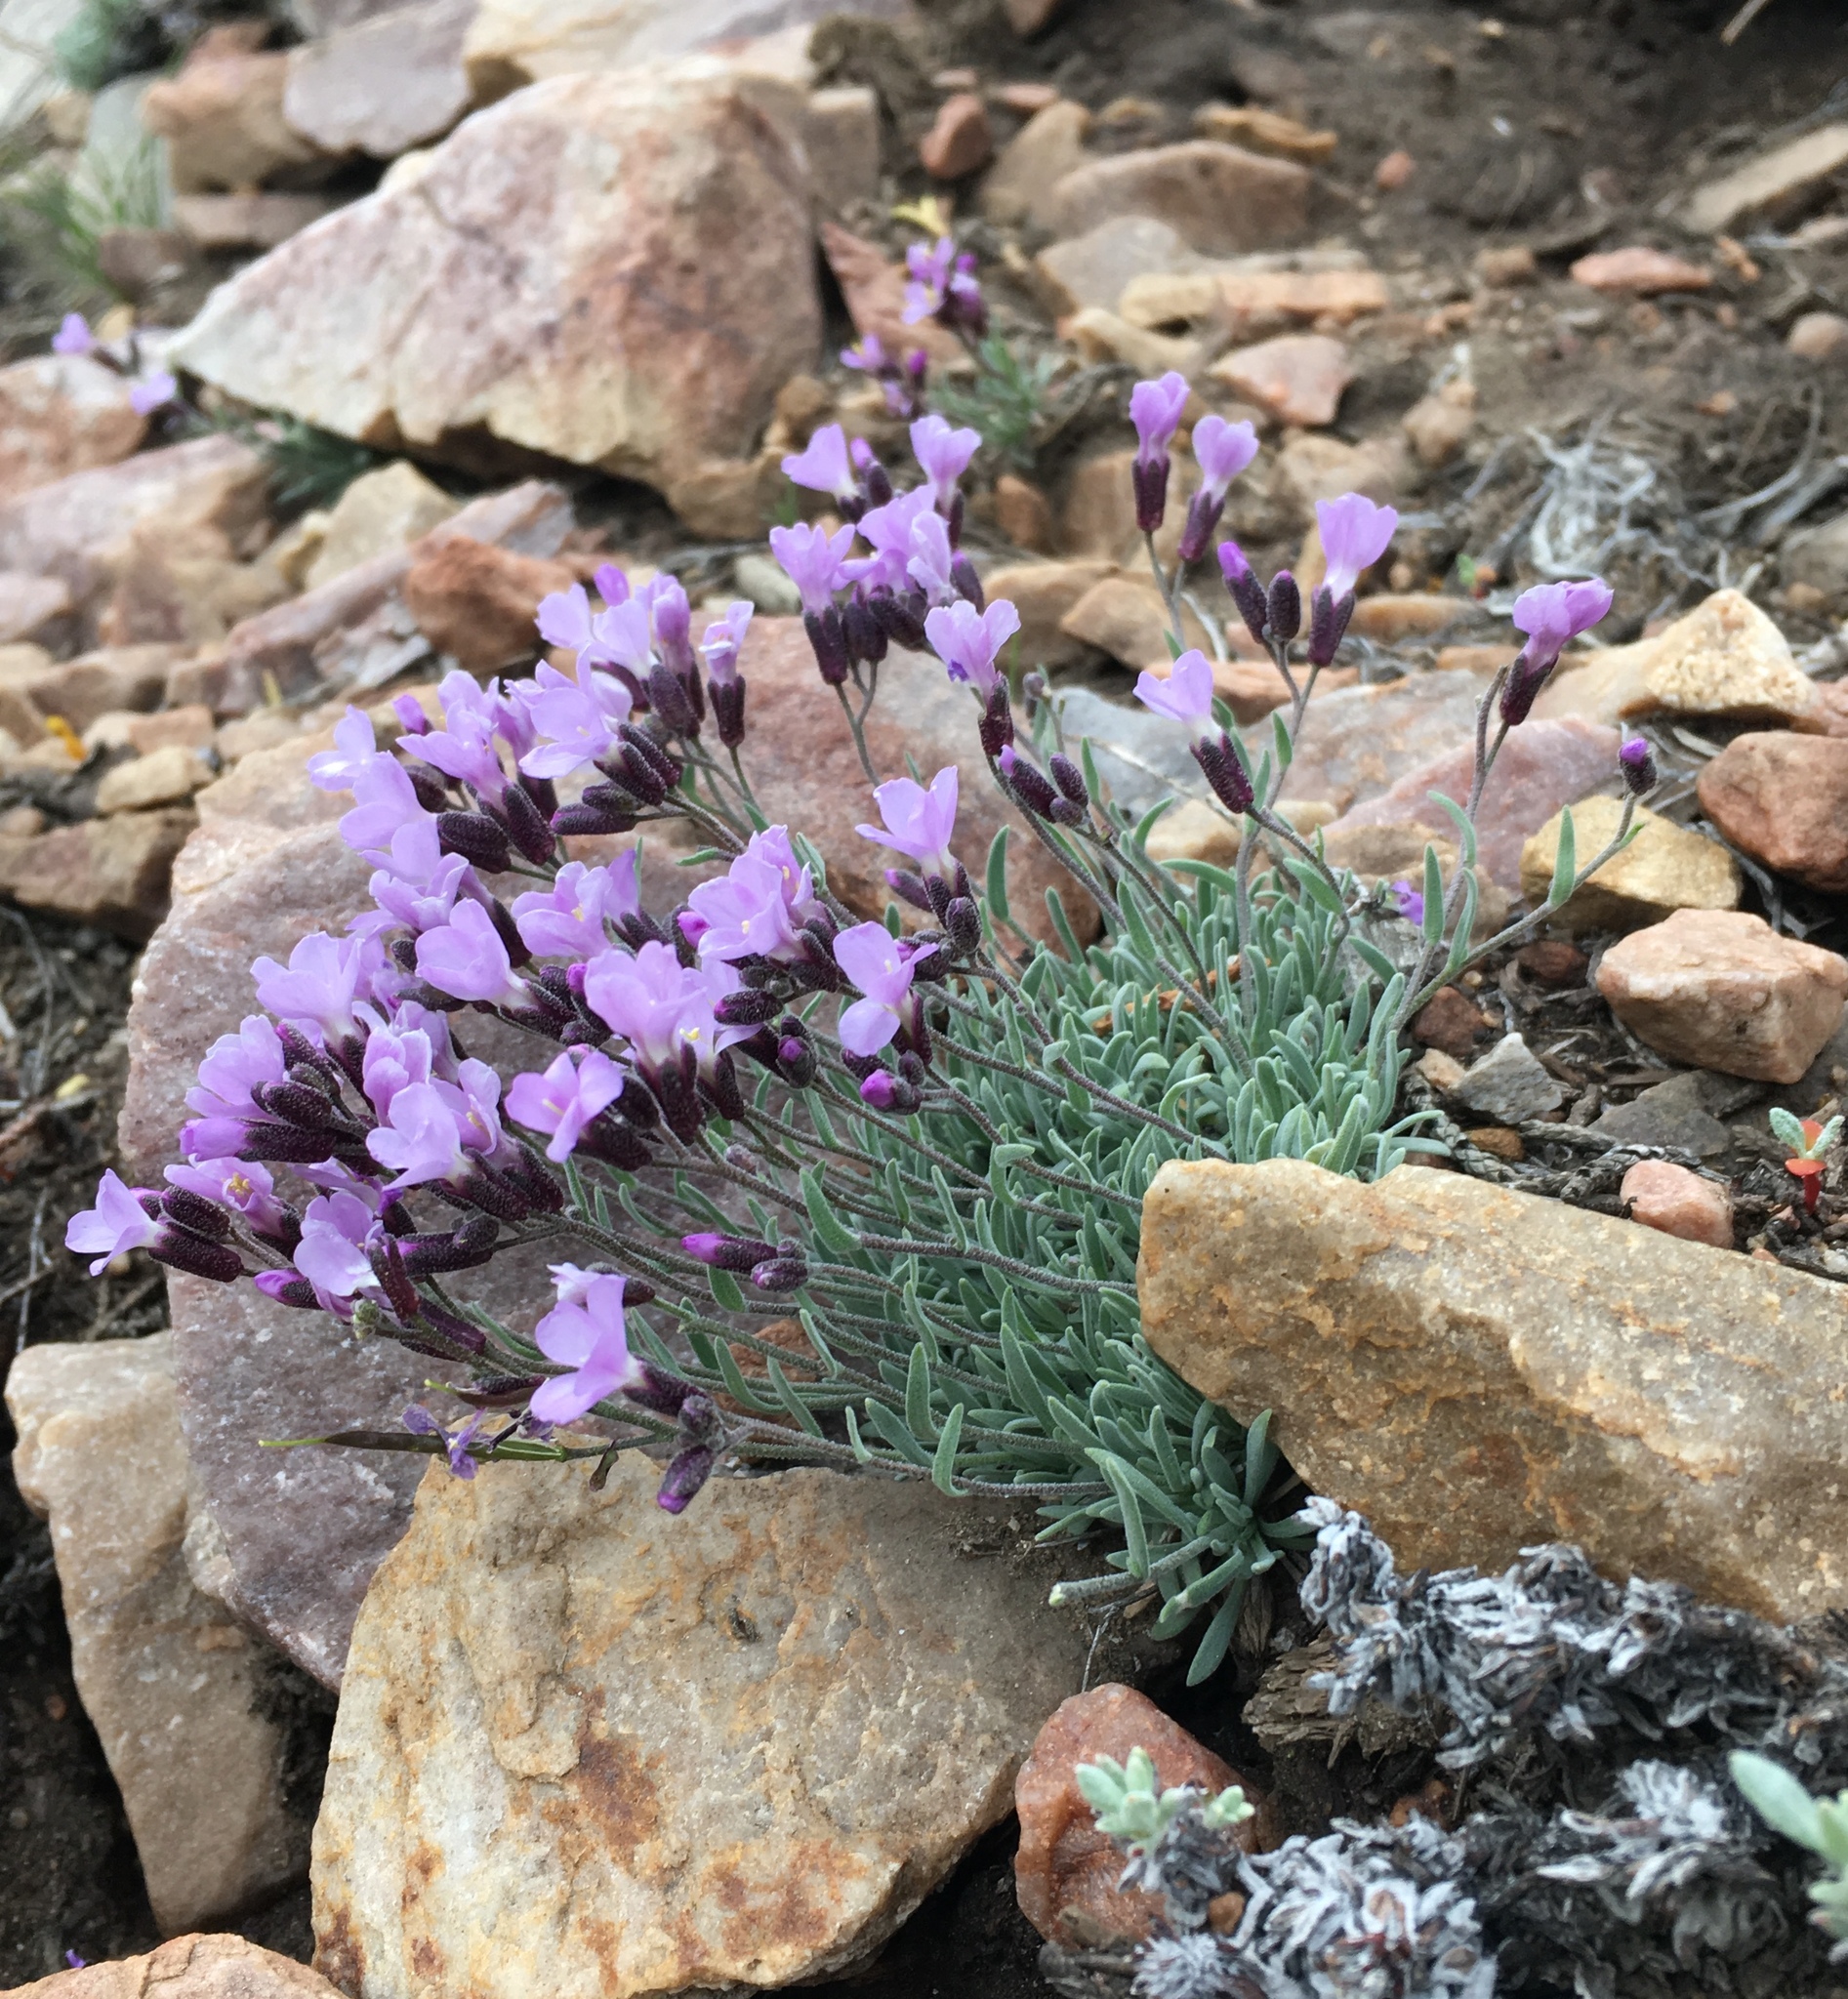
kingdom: Plantae
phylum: Tracheophyta
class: Magnoliopsida
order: Brassicales
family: Brassicaceae
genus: Boechera
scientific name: Boechera parishii
